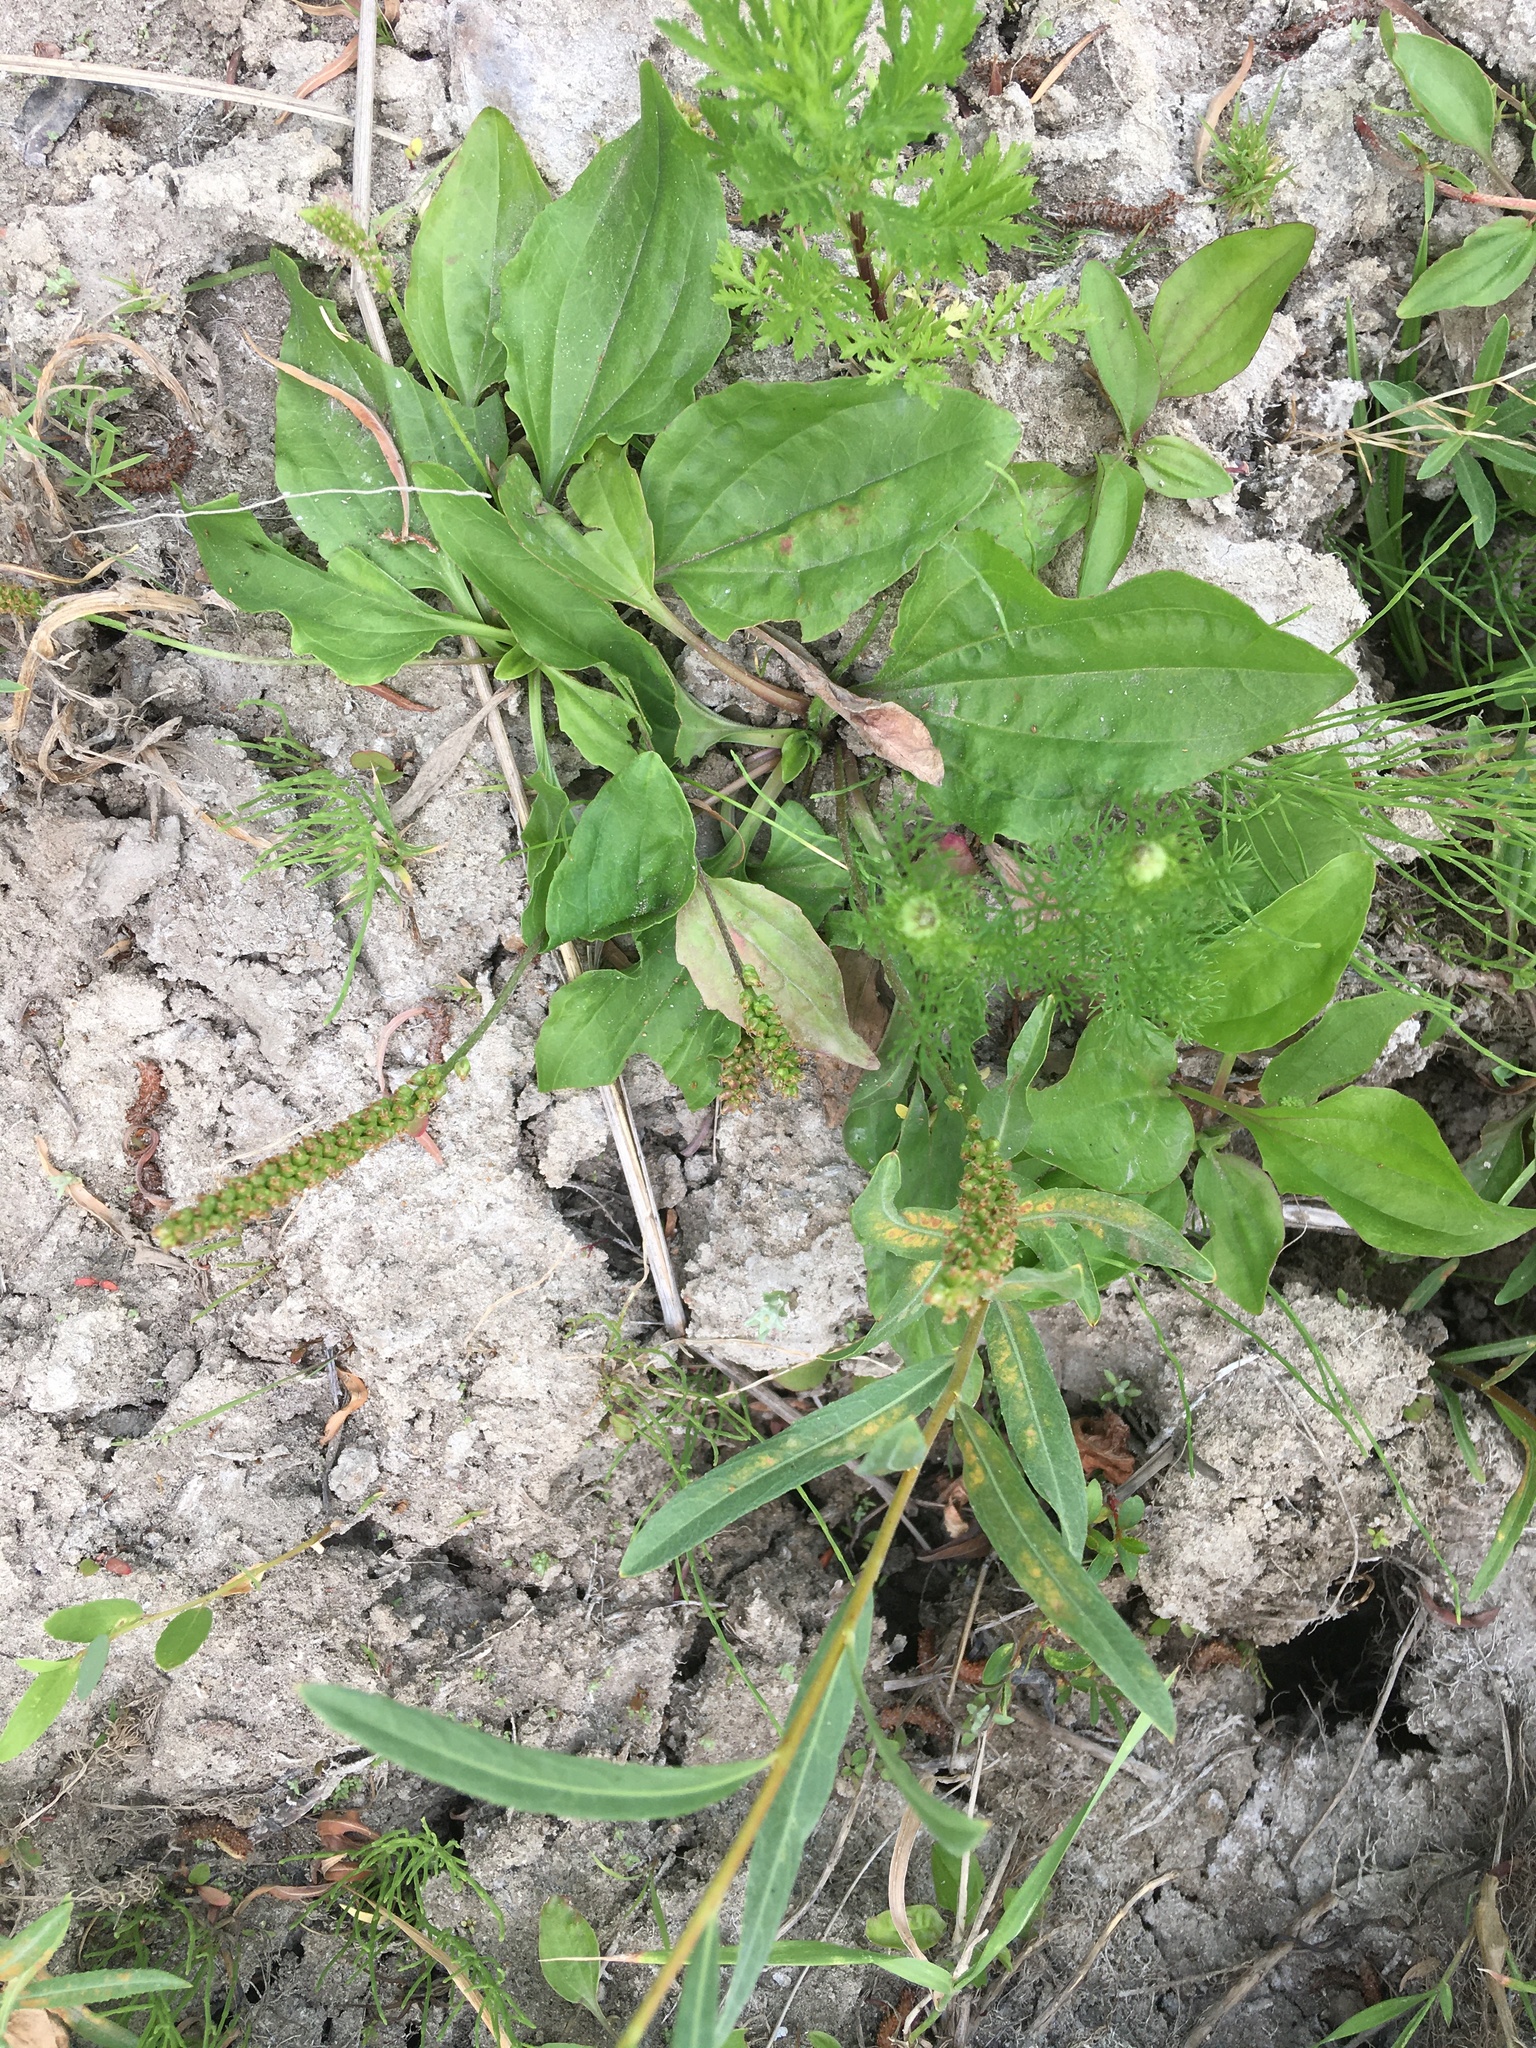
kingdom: Plantae
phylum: Tracheophyta
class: Magnoliopsida
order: Lamiales
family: Plantaginaceae
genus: Plantago
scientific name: Plantago major
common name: Common plantain
